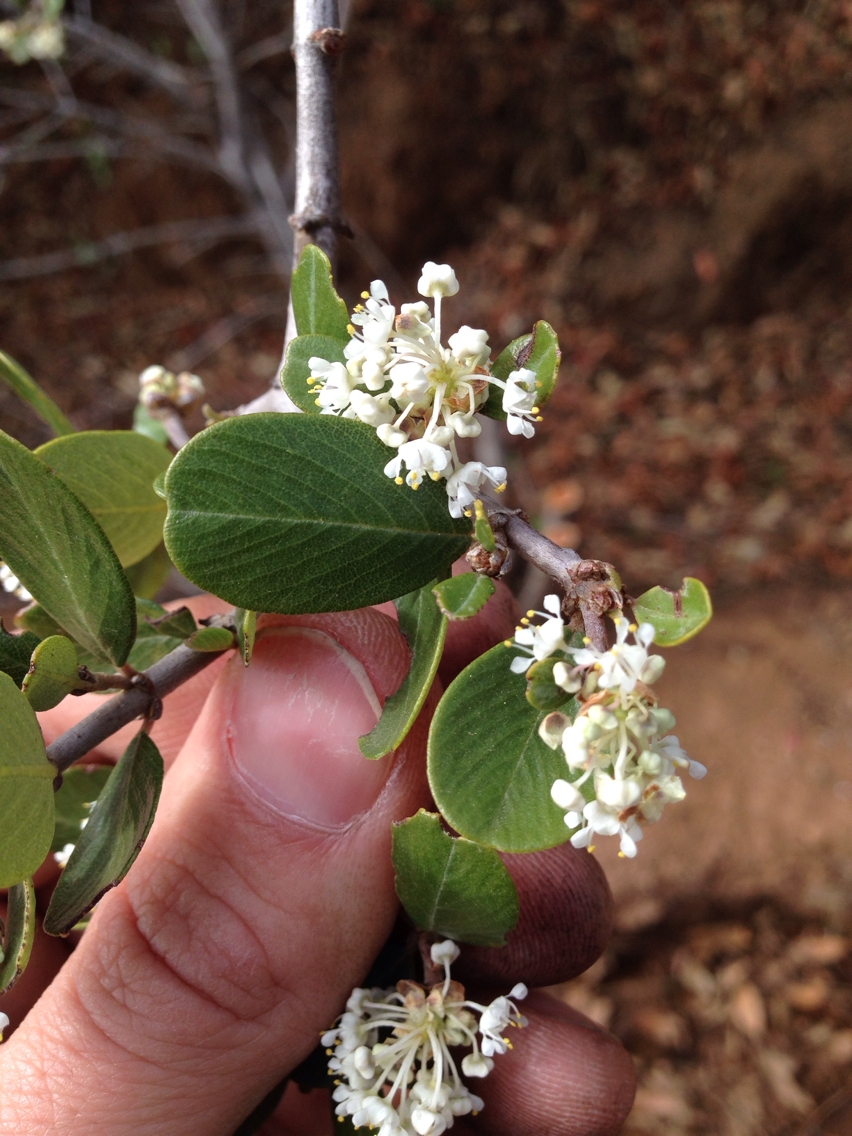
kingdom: Plantae
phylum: Tracheophyta
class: Magnoliopsida
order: Rosales
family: Rhamnaceae
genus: Ceanothus
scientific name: Ceanothus cuneatus
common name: Cuneate ceanothus
